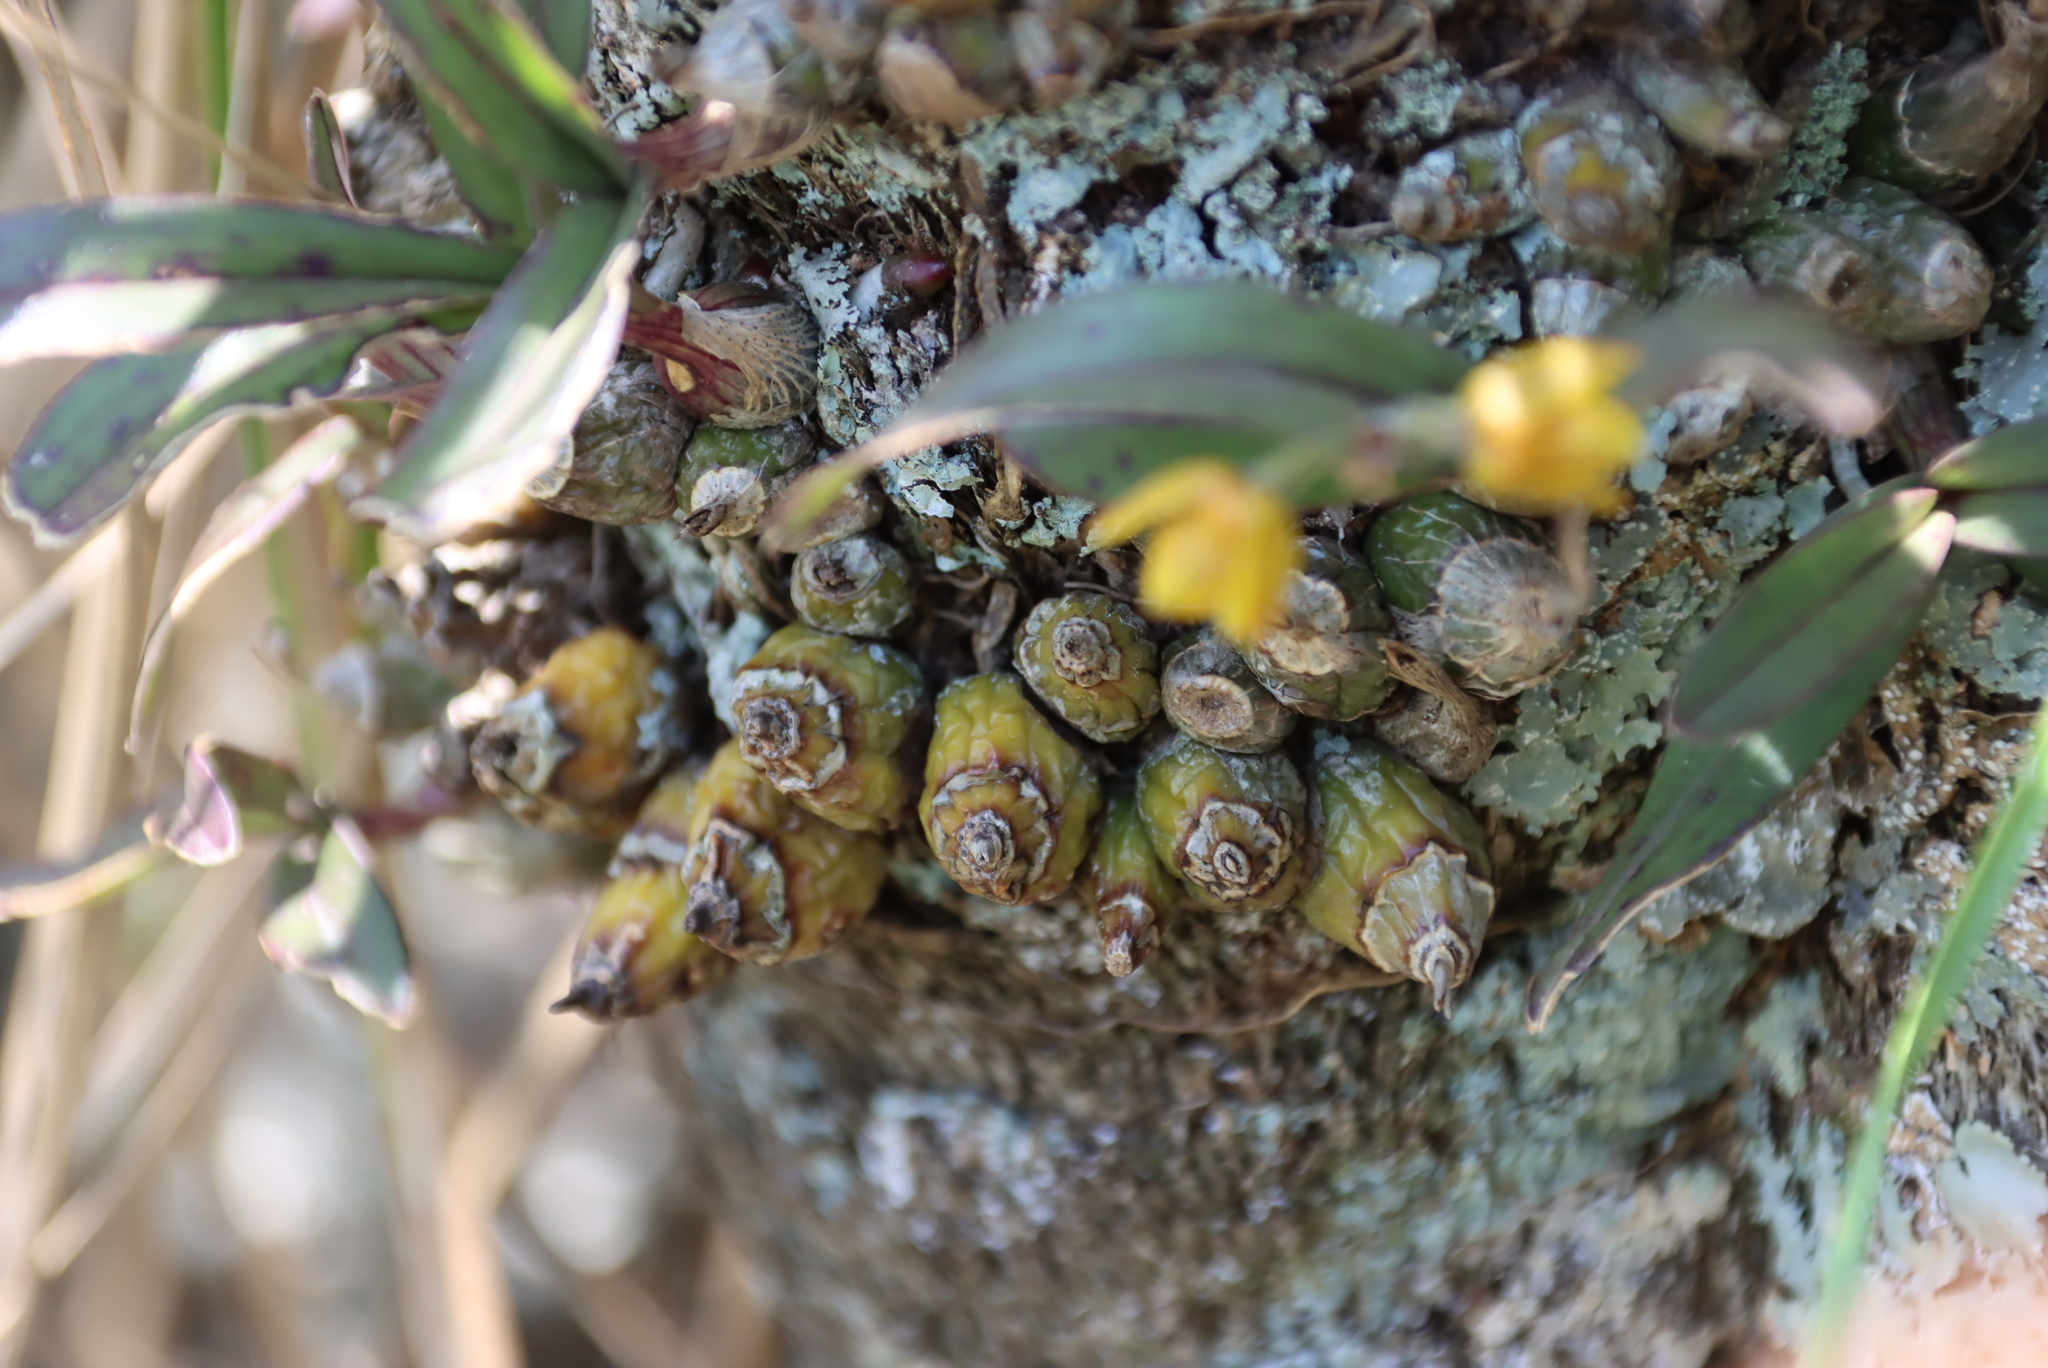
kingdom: Plantae
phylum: Tracheophyta
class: Liliopsida
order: Asparagales
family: Orchidaceae
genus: Polystachya
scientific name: Polystachya ngomensis
